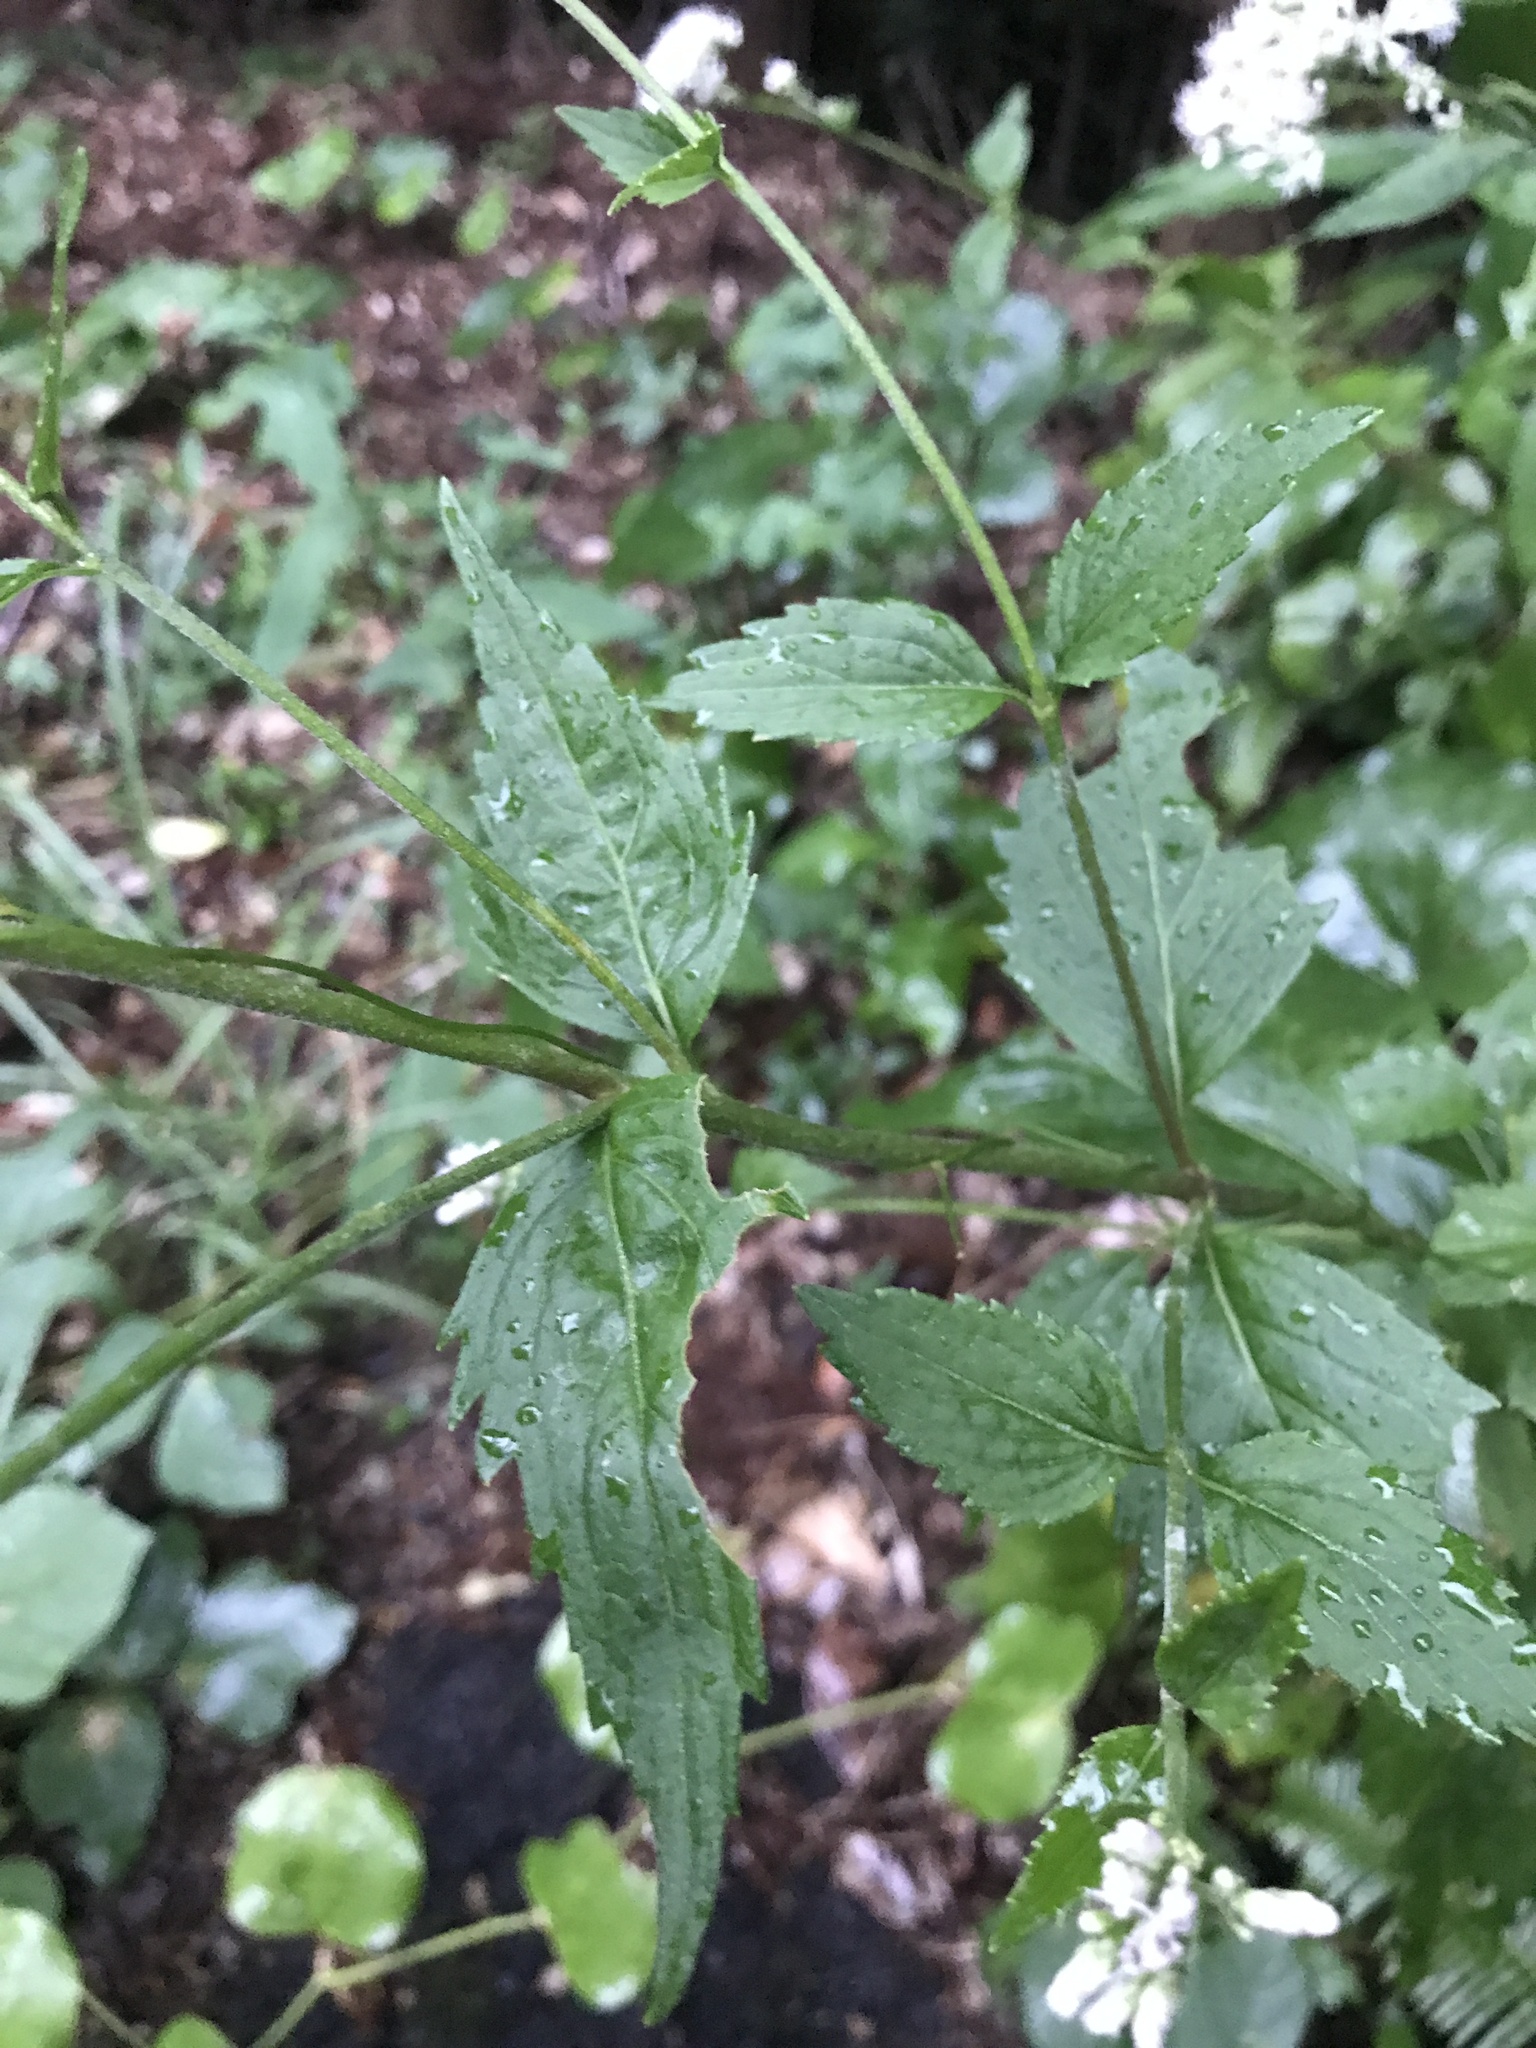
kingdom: Plantae
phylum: Tracheophyta
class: Magnoliopsida
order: Asterales
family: Asteraceae
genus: Eupatorium
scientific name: Eupatorium chinense
